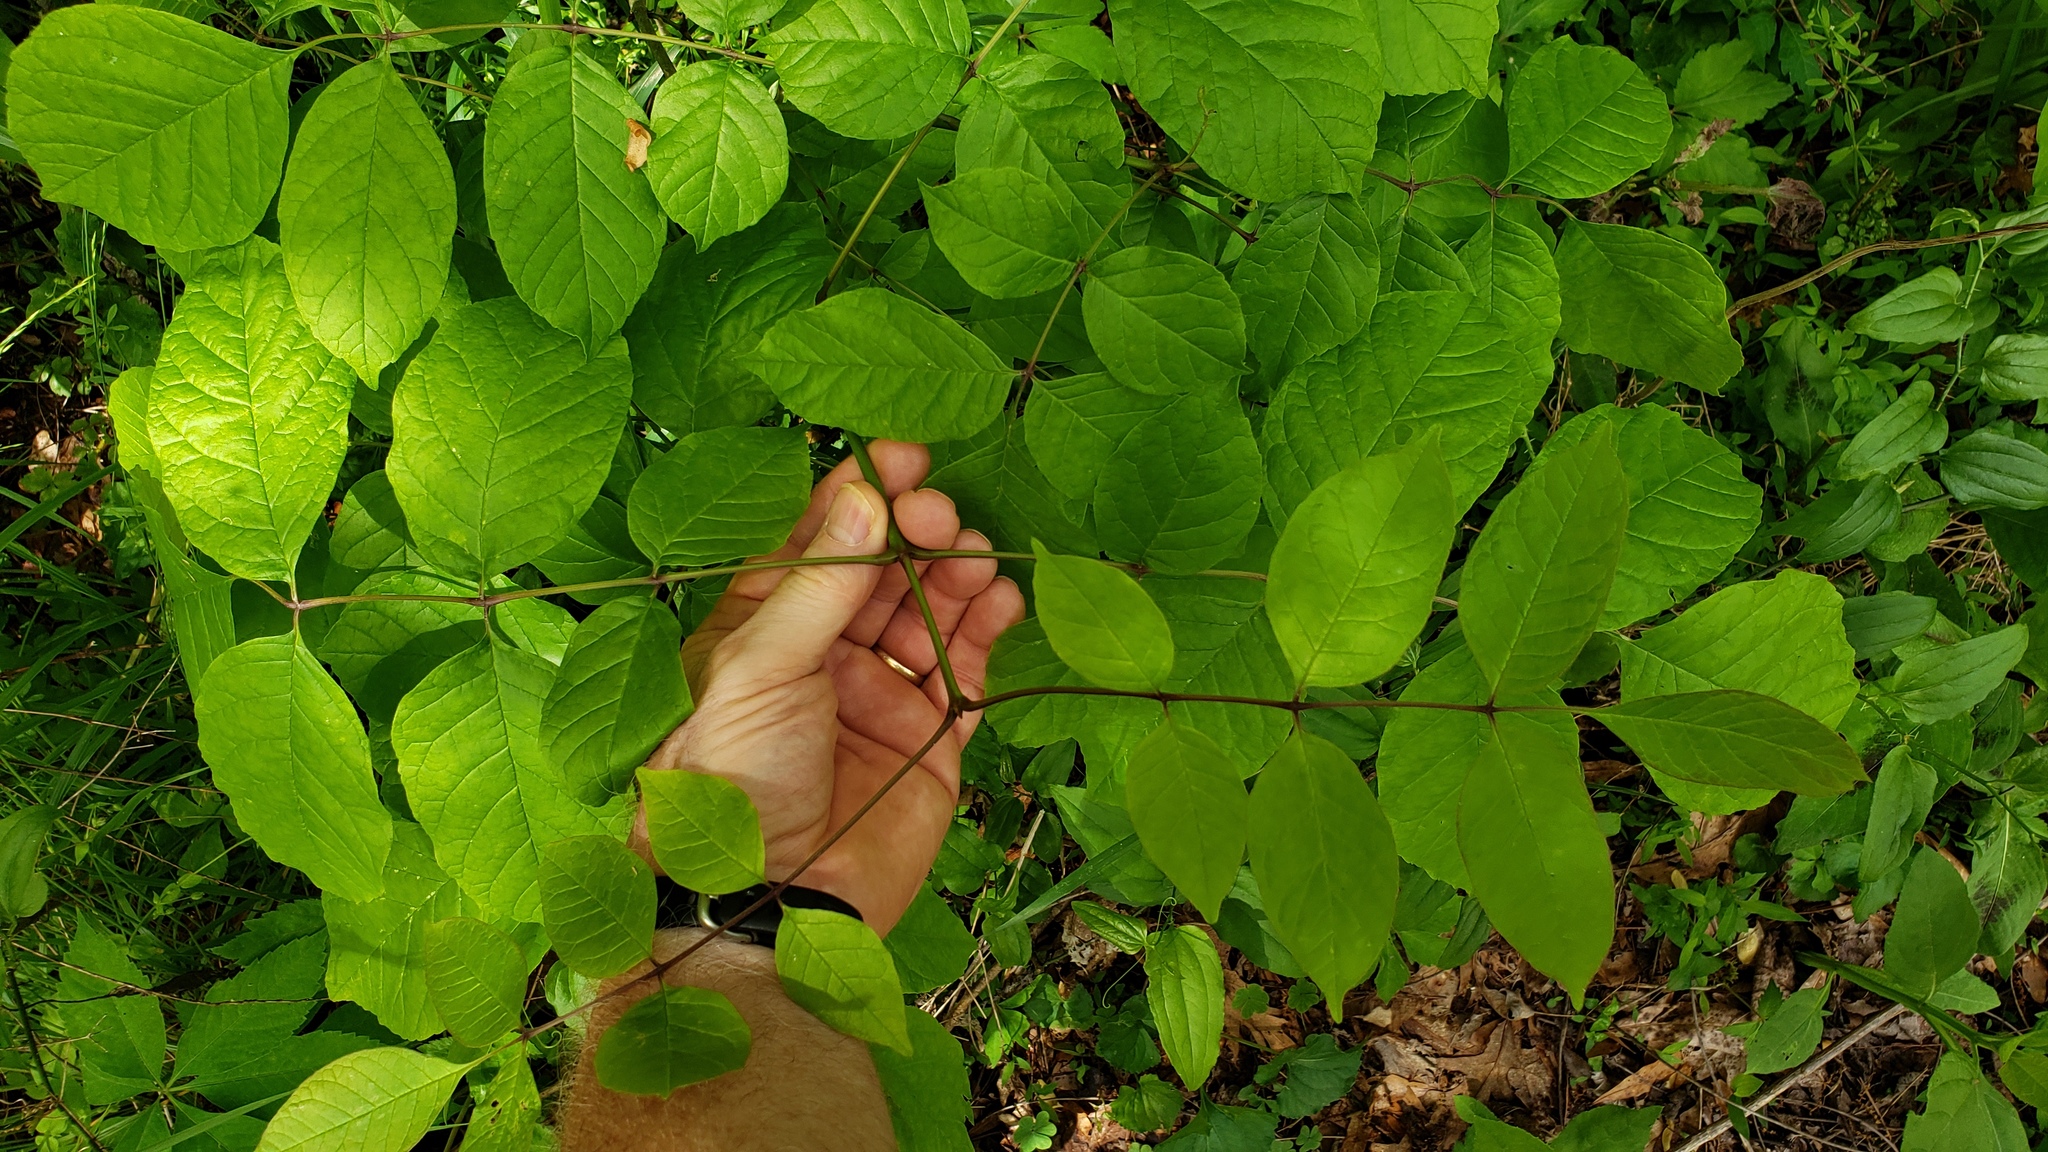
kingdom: Plantae
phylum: Tracheophyta
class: Magnoliopsida
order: Lamiales
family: Oleaceae
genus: Fraxinus
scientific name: Fraxinus pennsylvanica
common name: Green ash
